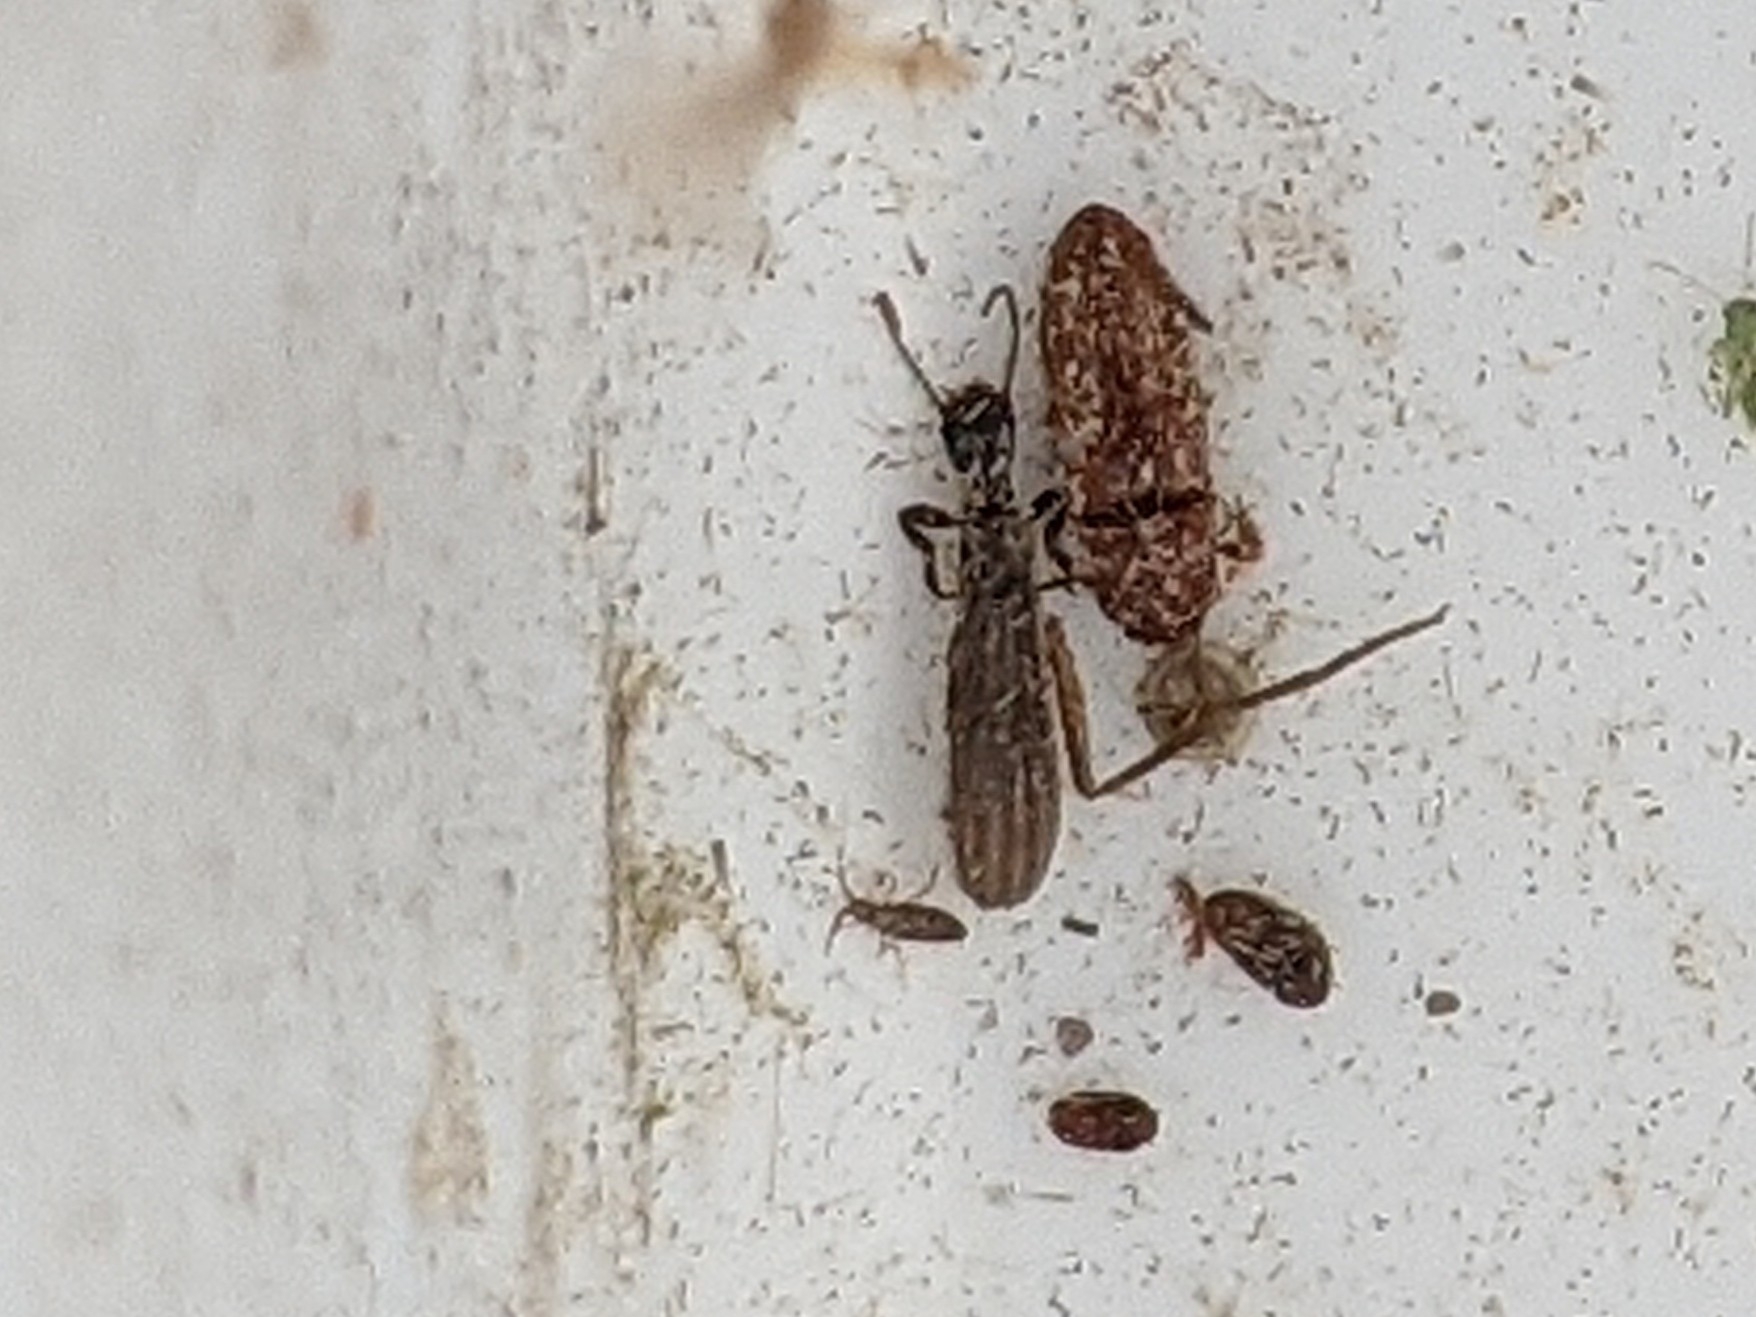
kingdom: Animalia
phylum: Arthropoda
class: Insecta
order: Embioptera
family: Oligotomidae
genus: Oligotoma
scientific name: Oligotoma nigra
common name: Black webspinner
